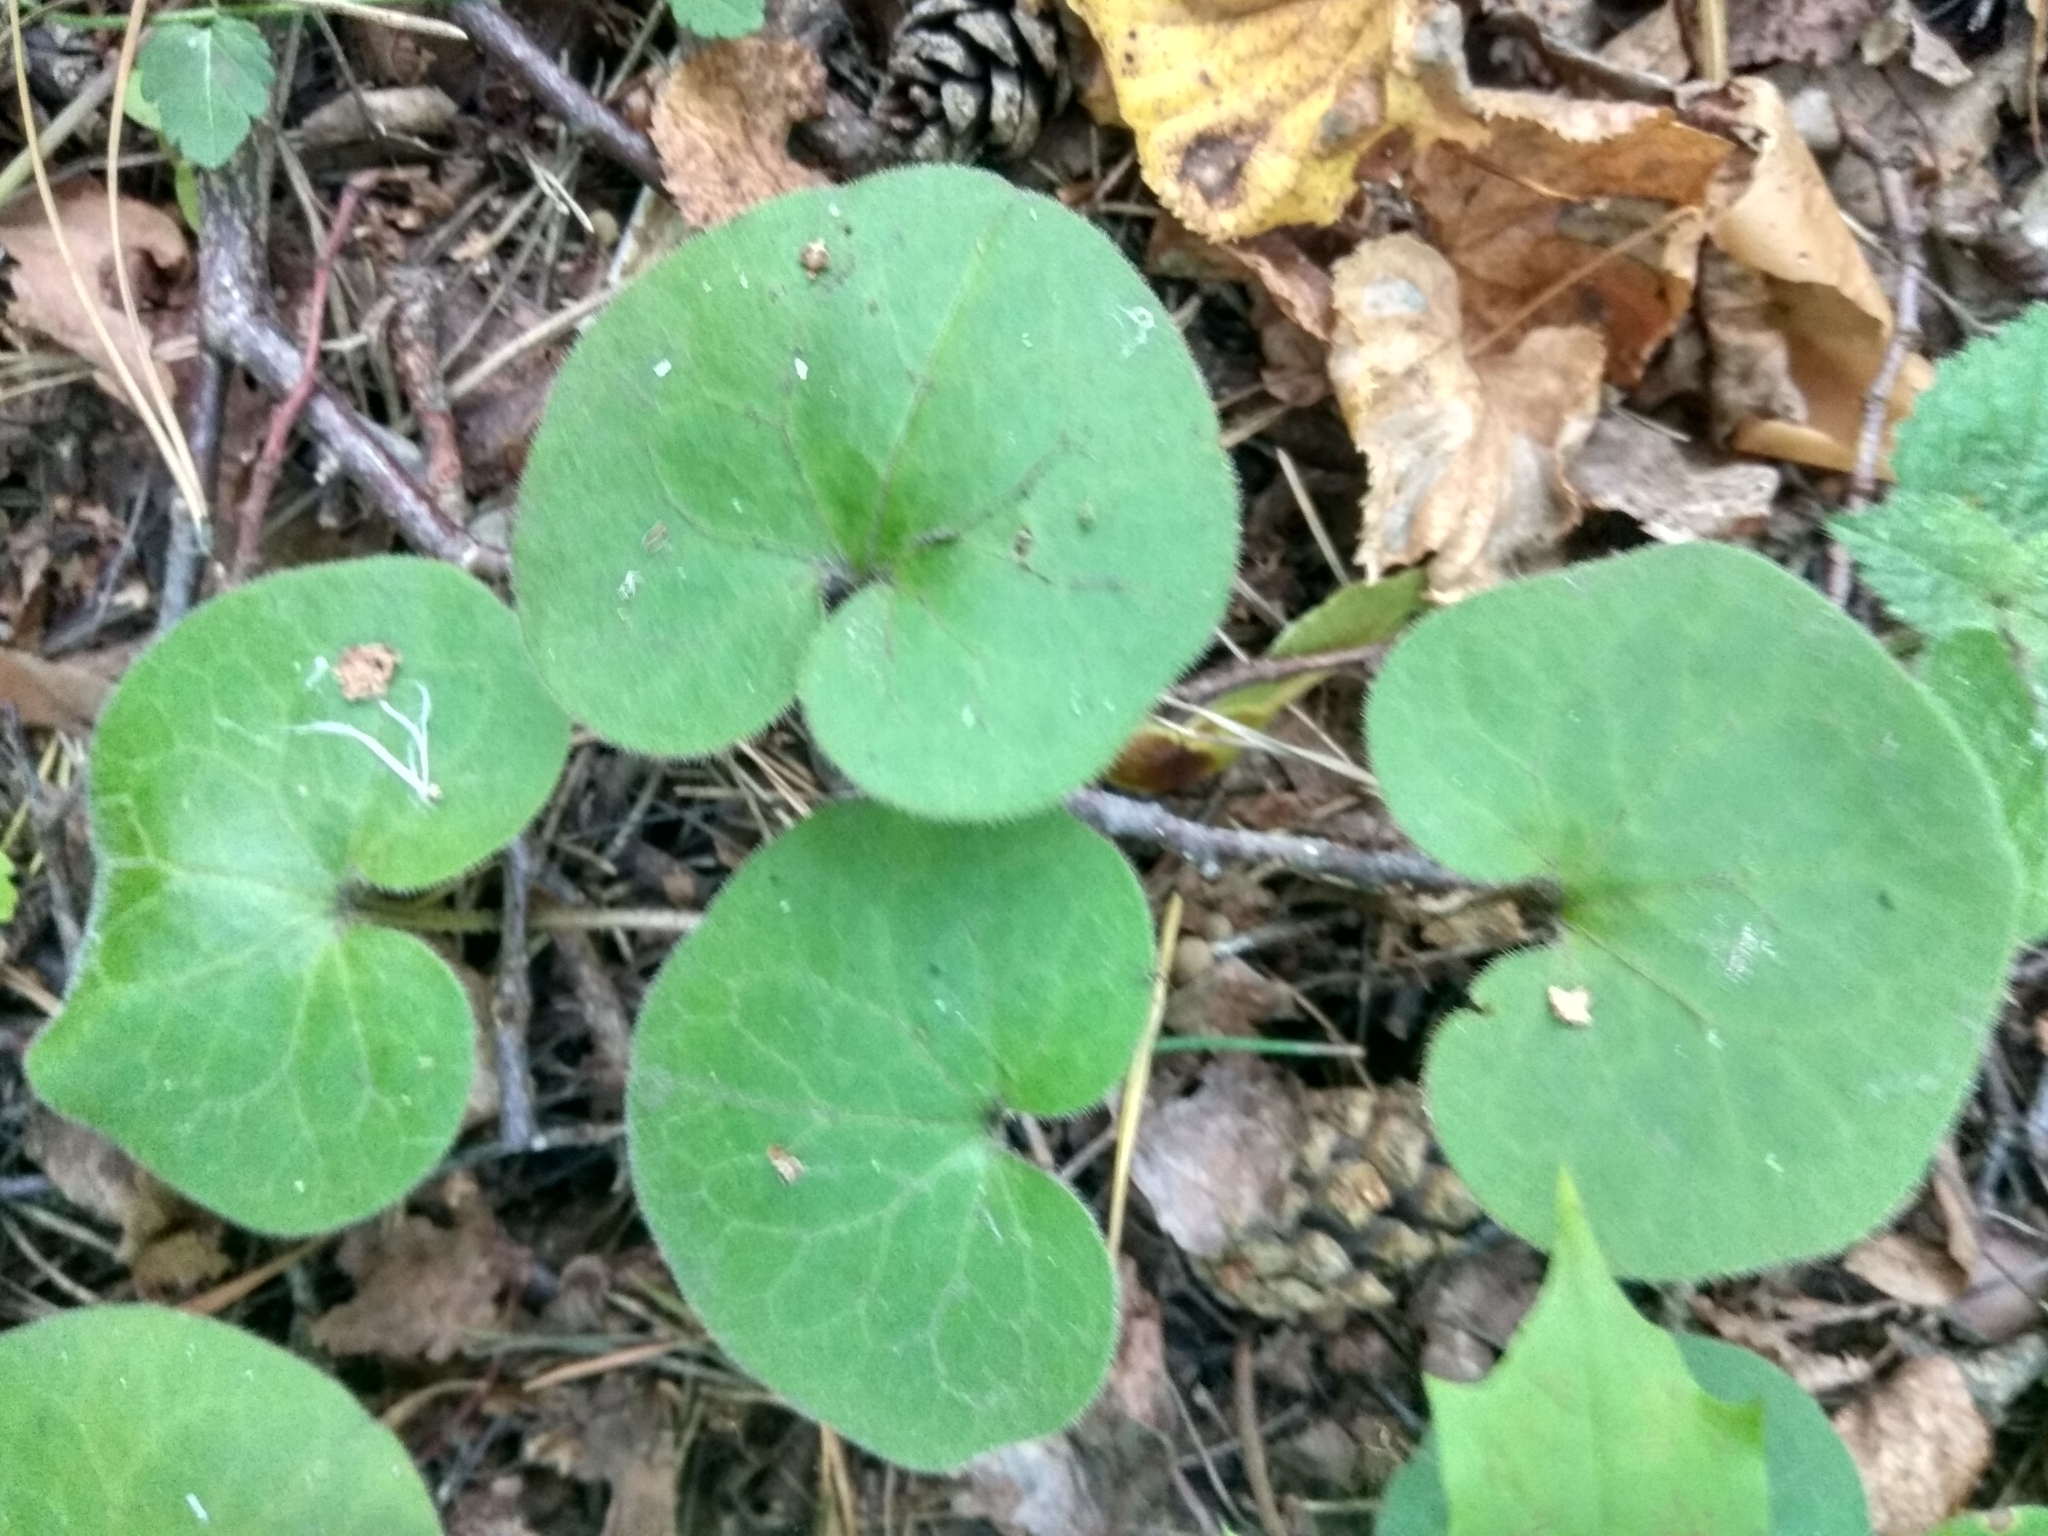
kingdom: Plantae
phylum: Tracheophyta
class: Magnoliopsida
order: Piperales
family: Aristolochiaceae
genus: Asarum
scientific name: Asarum europaeum
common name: Asarabacca
